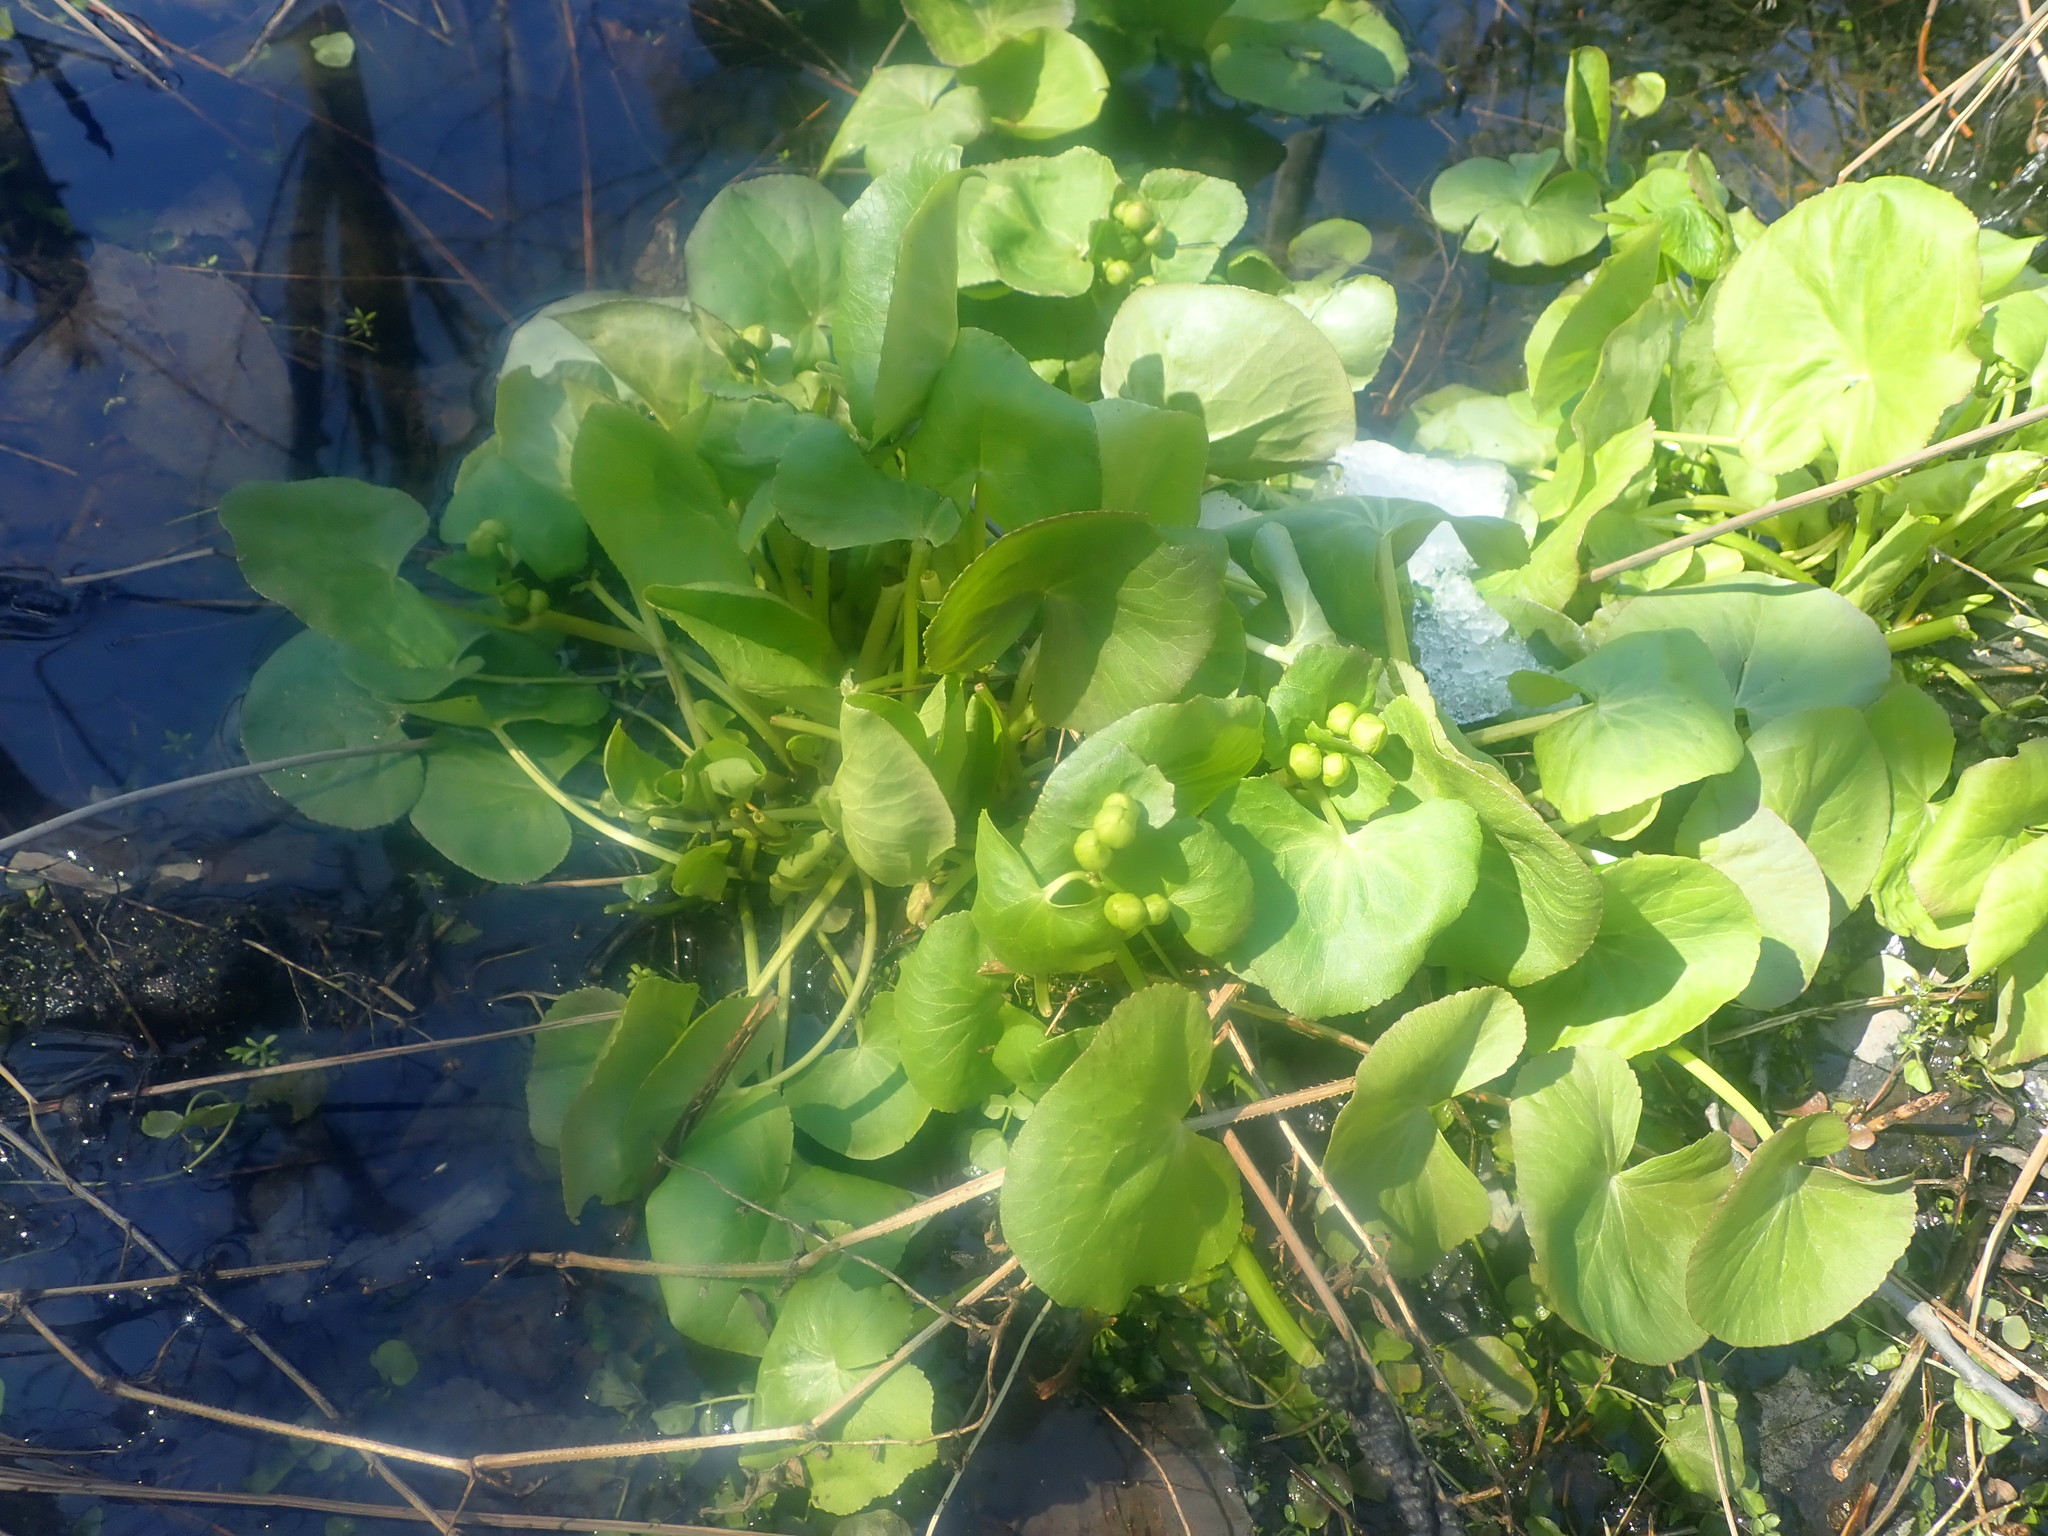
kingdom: Plantae
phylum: Tracheophyta
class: Magnoliopsida
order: Ranunculales
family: Ranunculaceae
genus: Caltha
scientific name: Caltha palustris
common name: Marsh marigold
